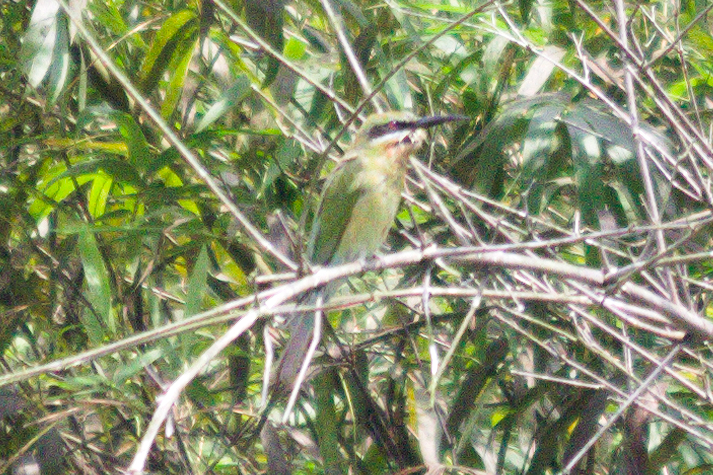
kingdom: Animalia
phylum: Chordata
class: Aves
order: Coraciiformes
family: Meropidae
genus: Merops
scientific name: Merops philippinus
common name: Blue-tailed bee-eater
